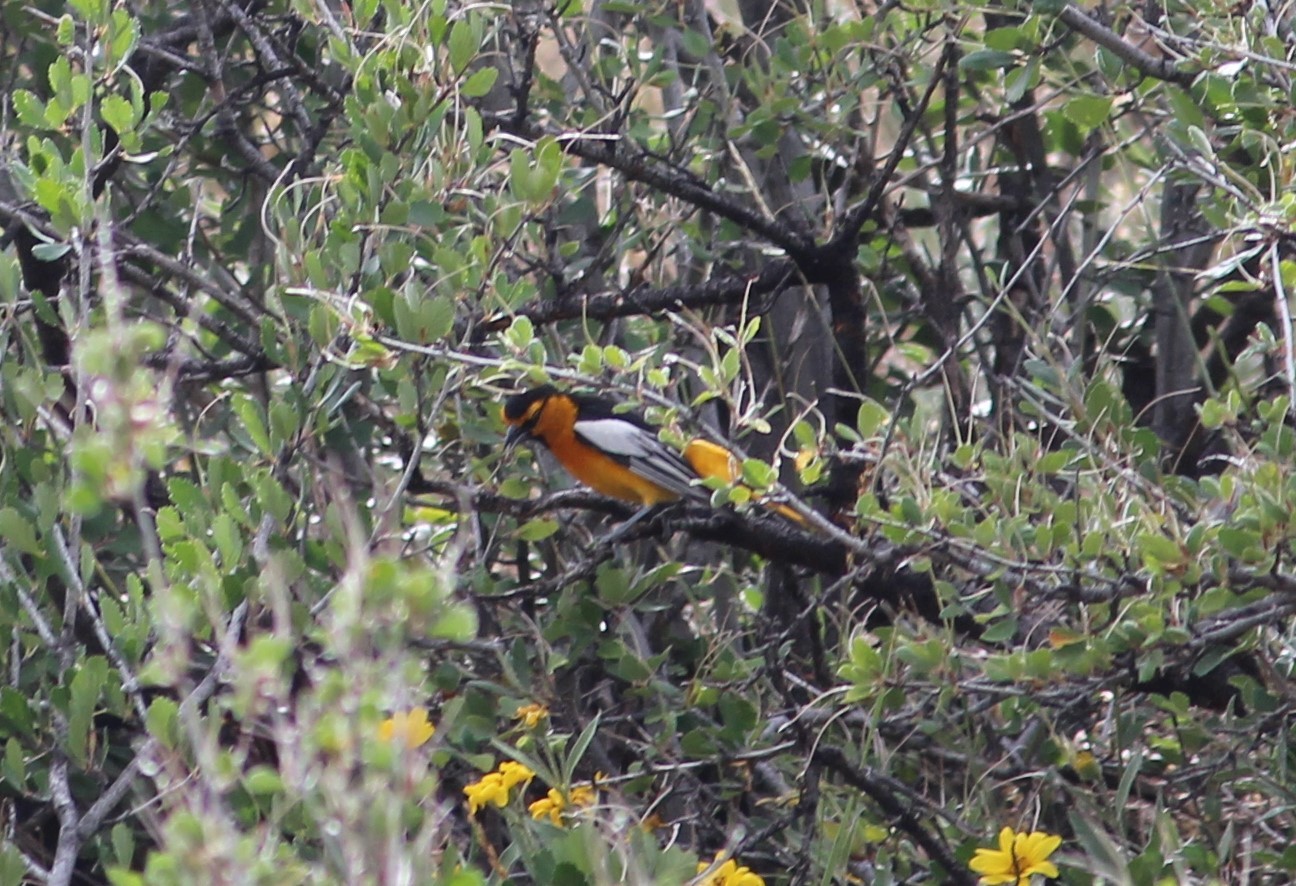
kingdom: Animalia
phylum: Chordata
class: Aves
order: Passeriformes
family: Icteridae
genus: Icterus
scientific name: Icterus bullockii
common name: Bullock's oriole
